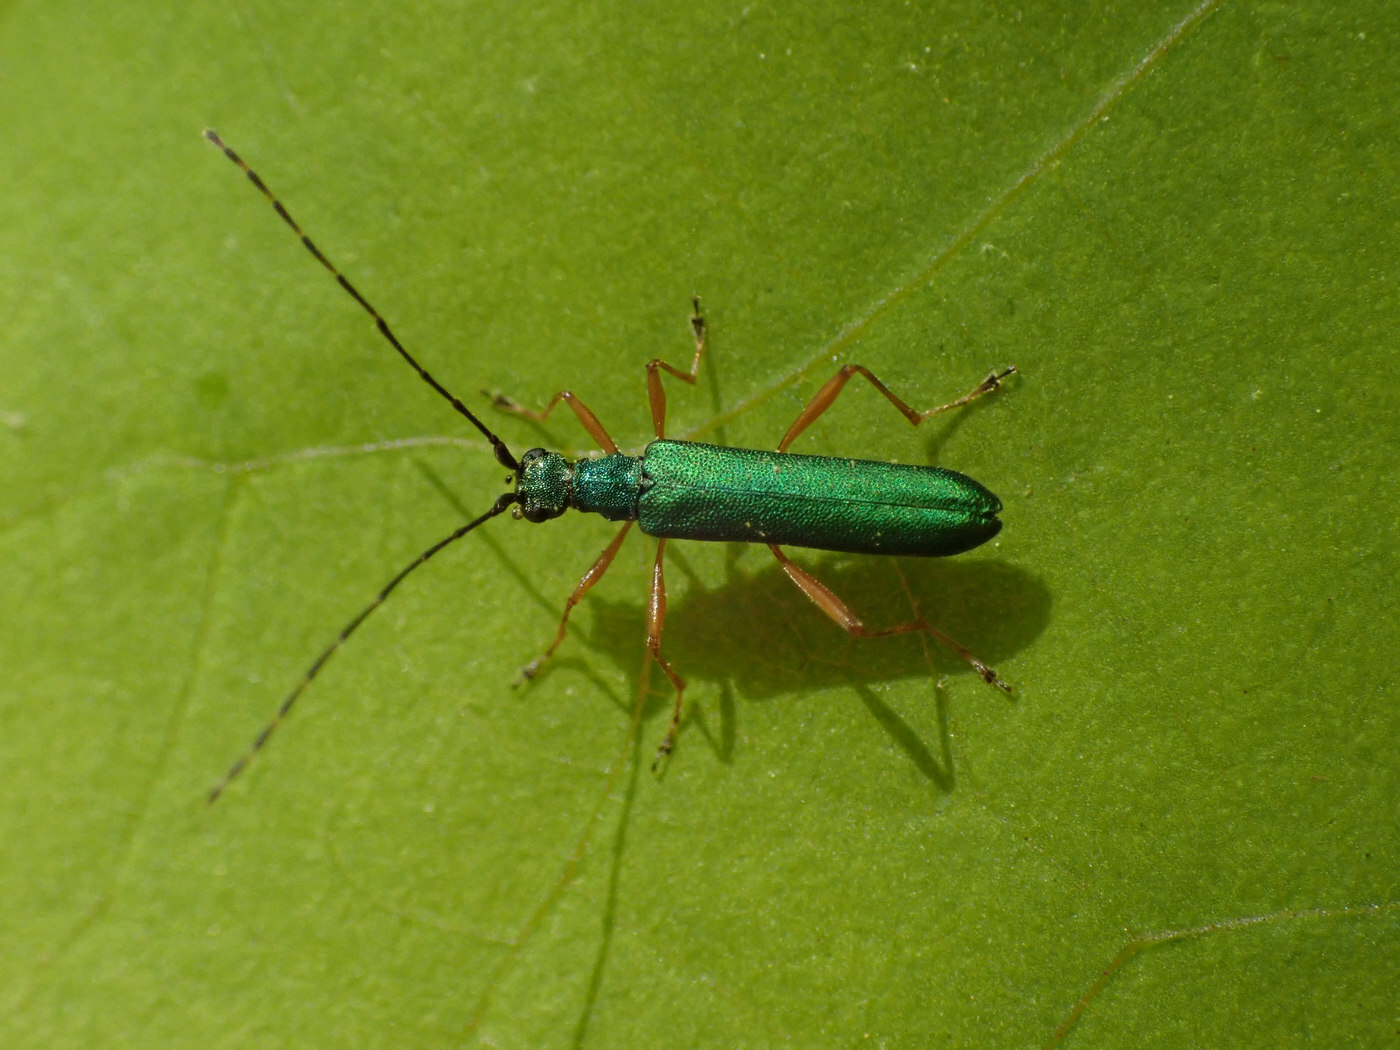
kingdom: Animalia
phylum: Arthropoda
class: Insecta
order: Coleoptera
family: Cerambycidae
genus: Encyclops
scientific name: Encyclops caerulea
